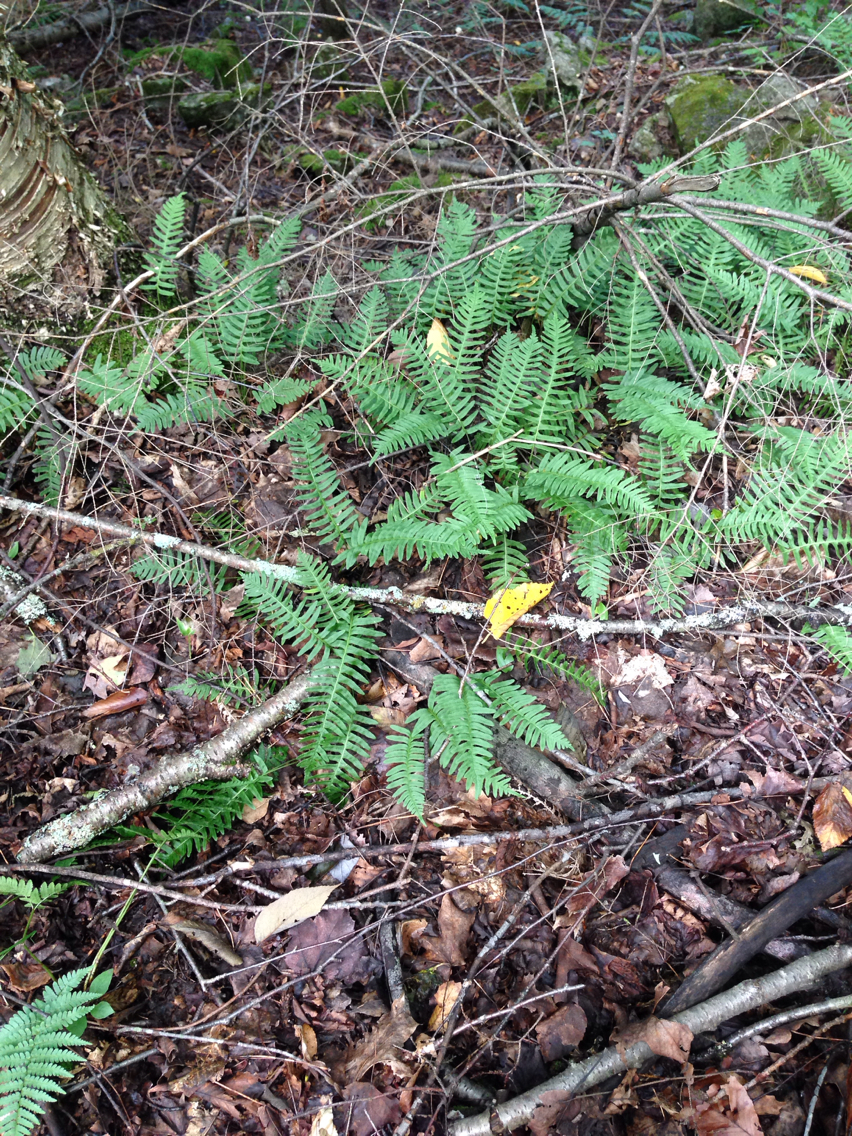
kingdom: Plantae
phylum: Tracheophyta
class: Polypodiopsida
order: Polypodiales
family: Polypodiaceae
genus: Polypodium
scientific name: Polypodium appalachianum
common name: Appalachian polypody
